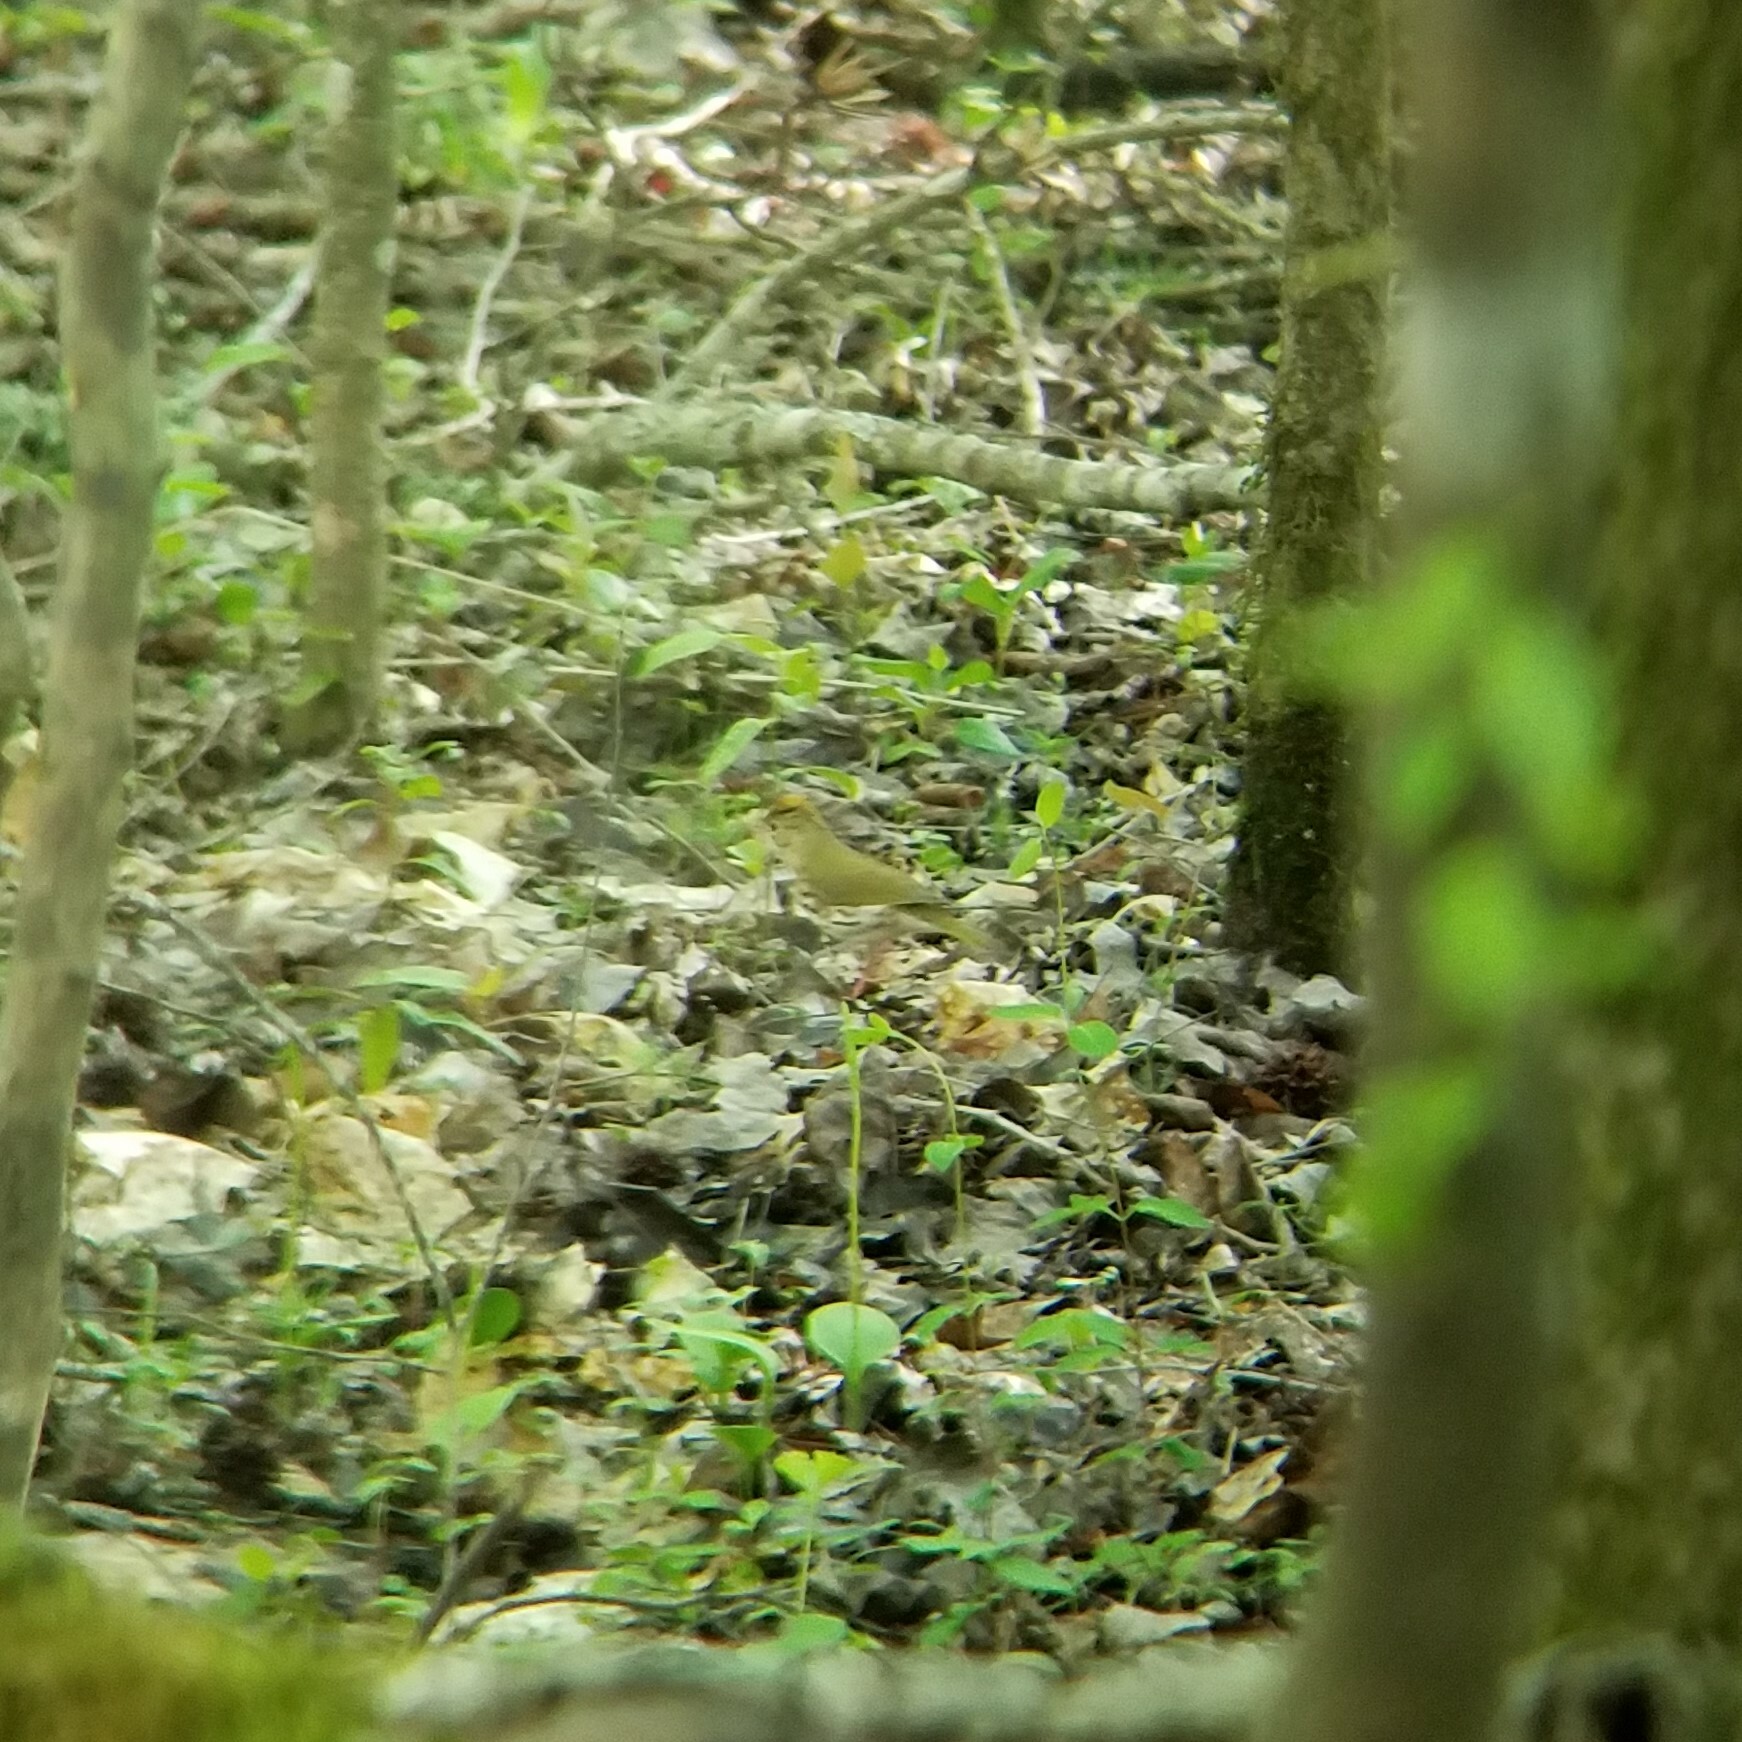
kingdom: Animalia
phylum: Chordata
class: Aves
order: Passeriformes
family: Parulidae
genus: Seiurus
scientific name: Seiurus aurocapilla
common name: Ovenbird
